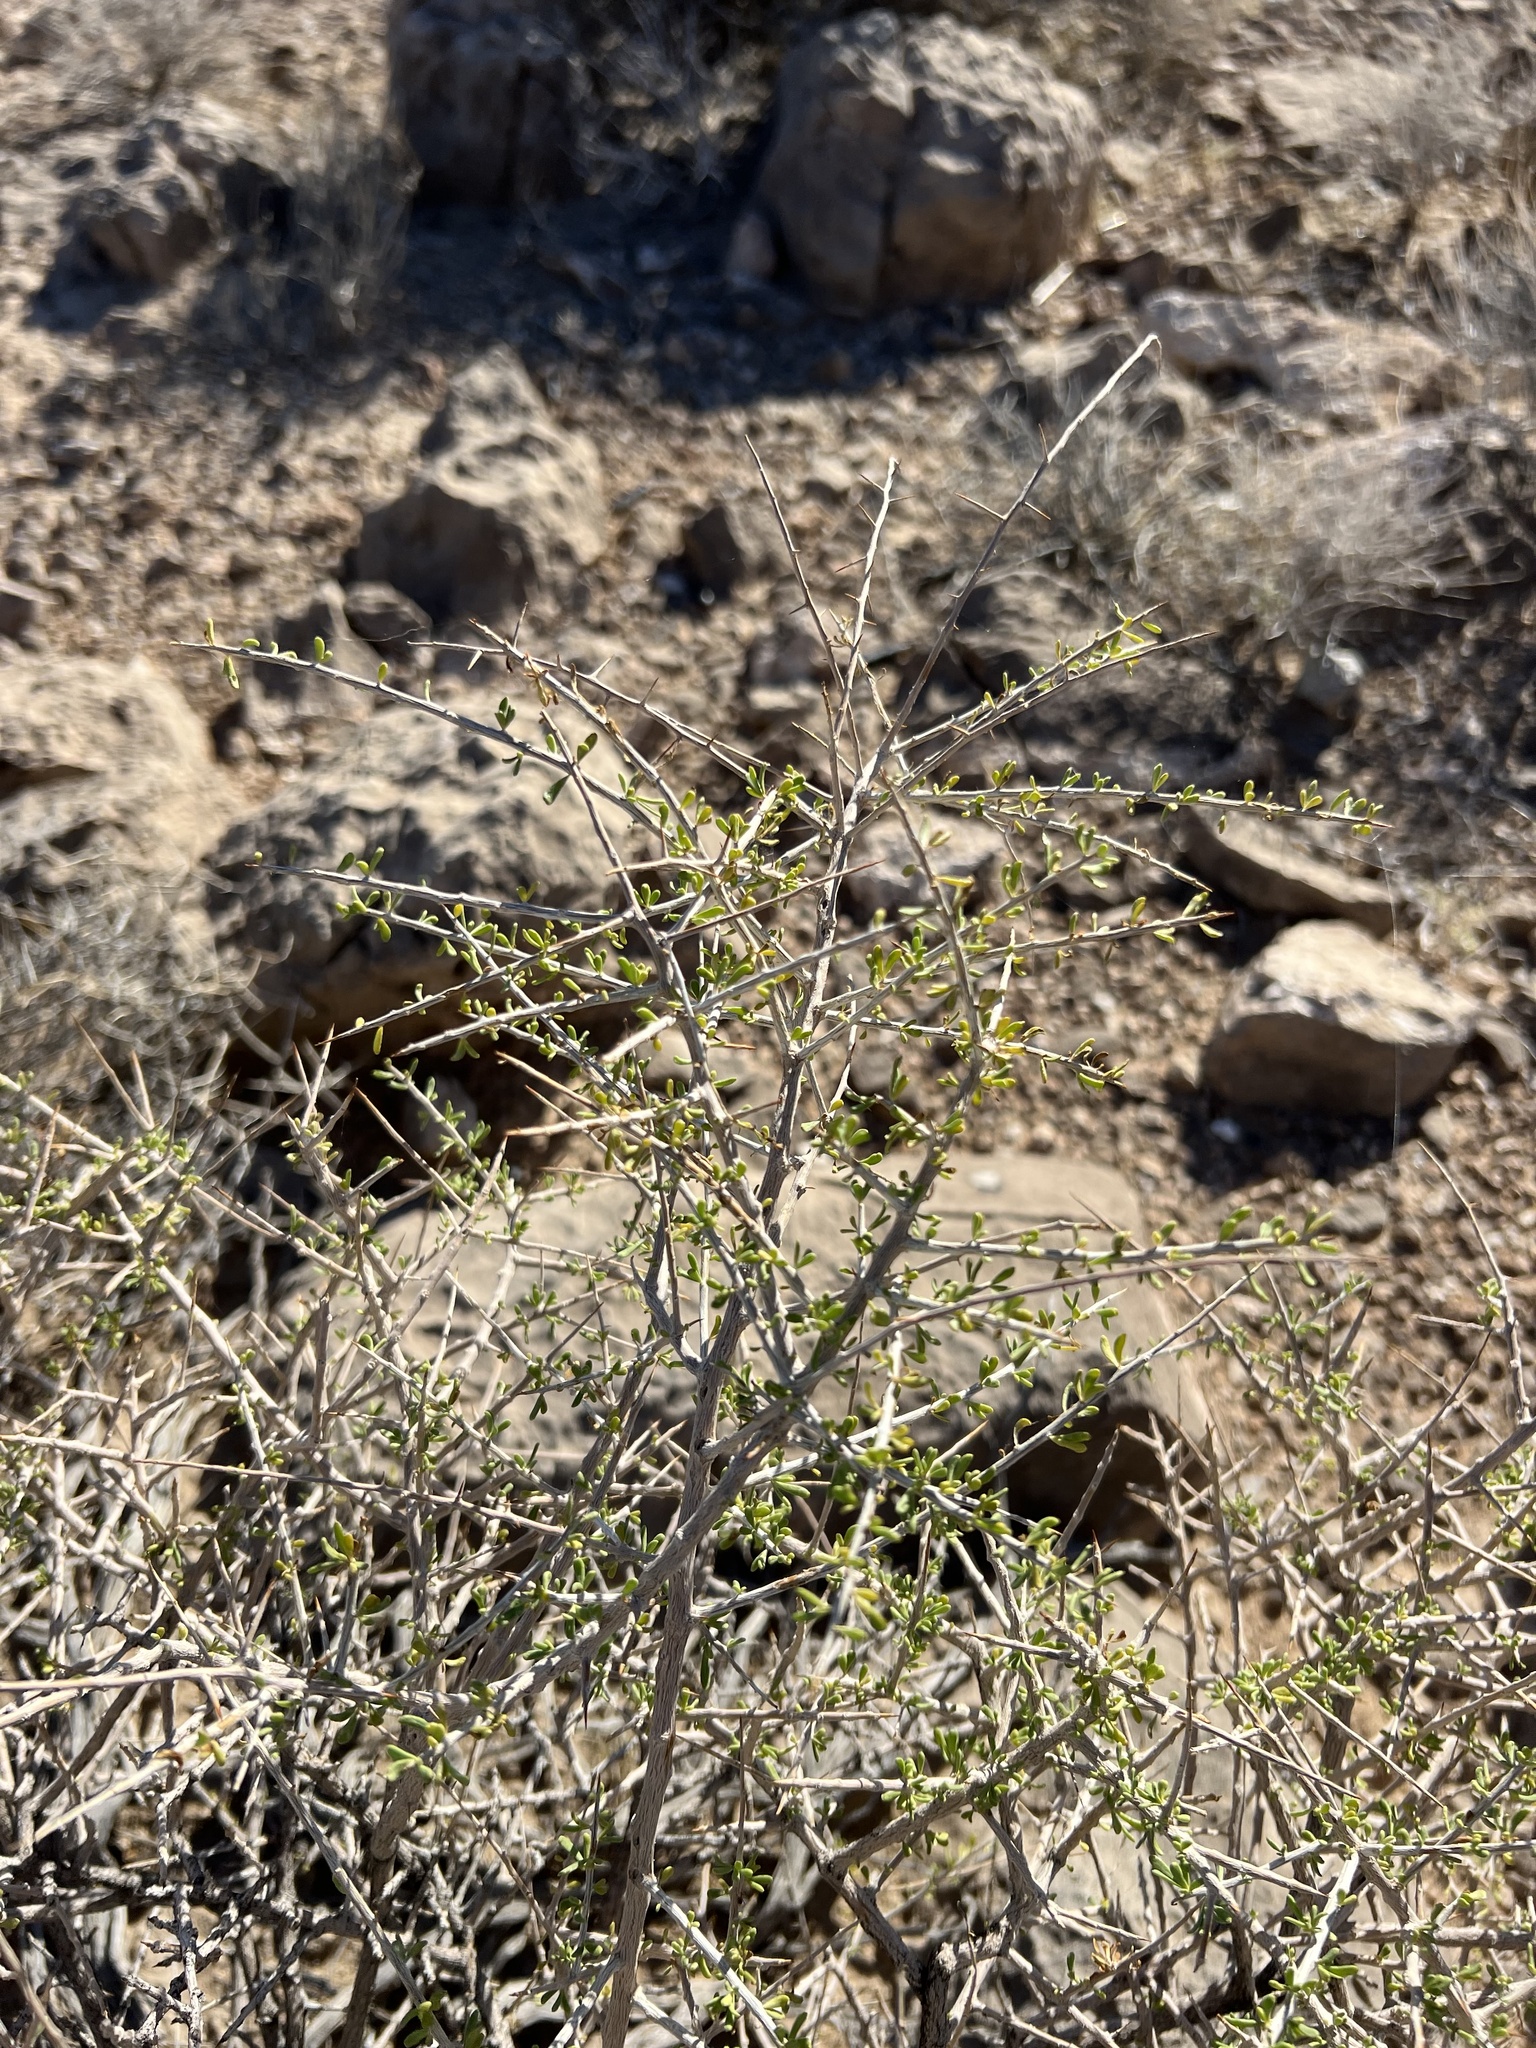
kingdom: Plantae
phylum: Tracheophyta
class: Magnoliopsida
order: Solanales
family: Solanaceae
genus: Lycium
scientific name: Lycium andersonii
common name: Water-jacket
